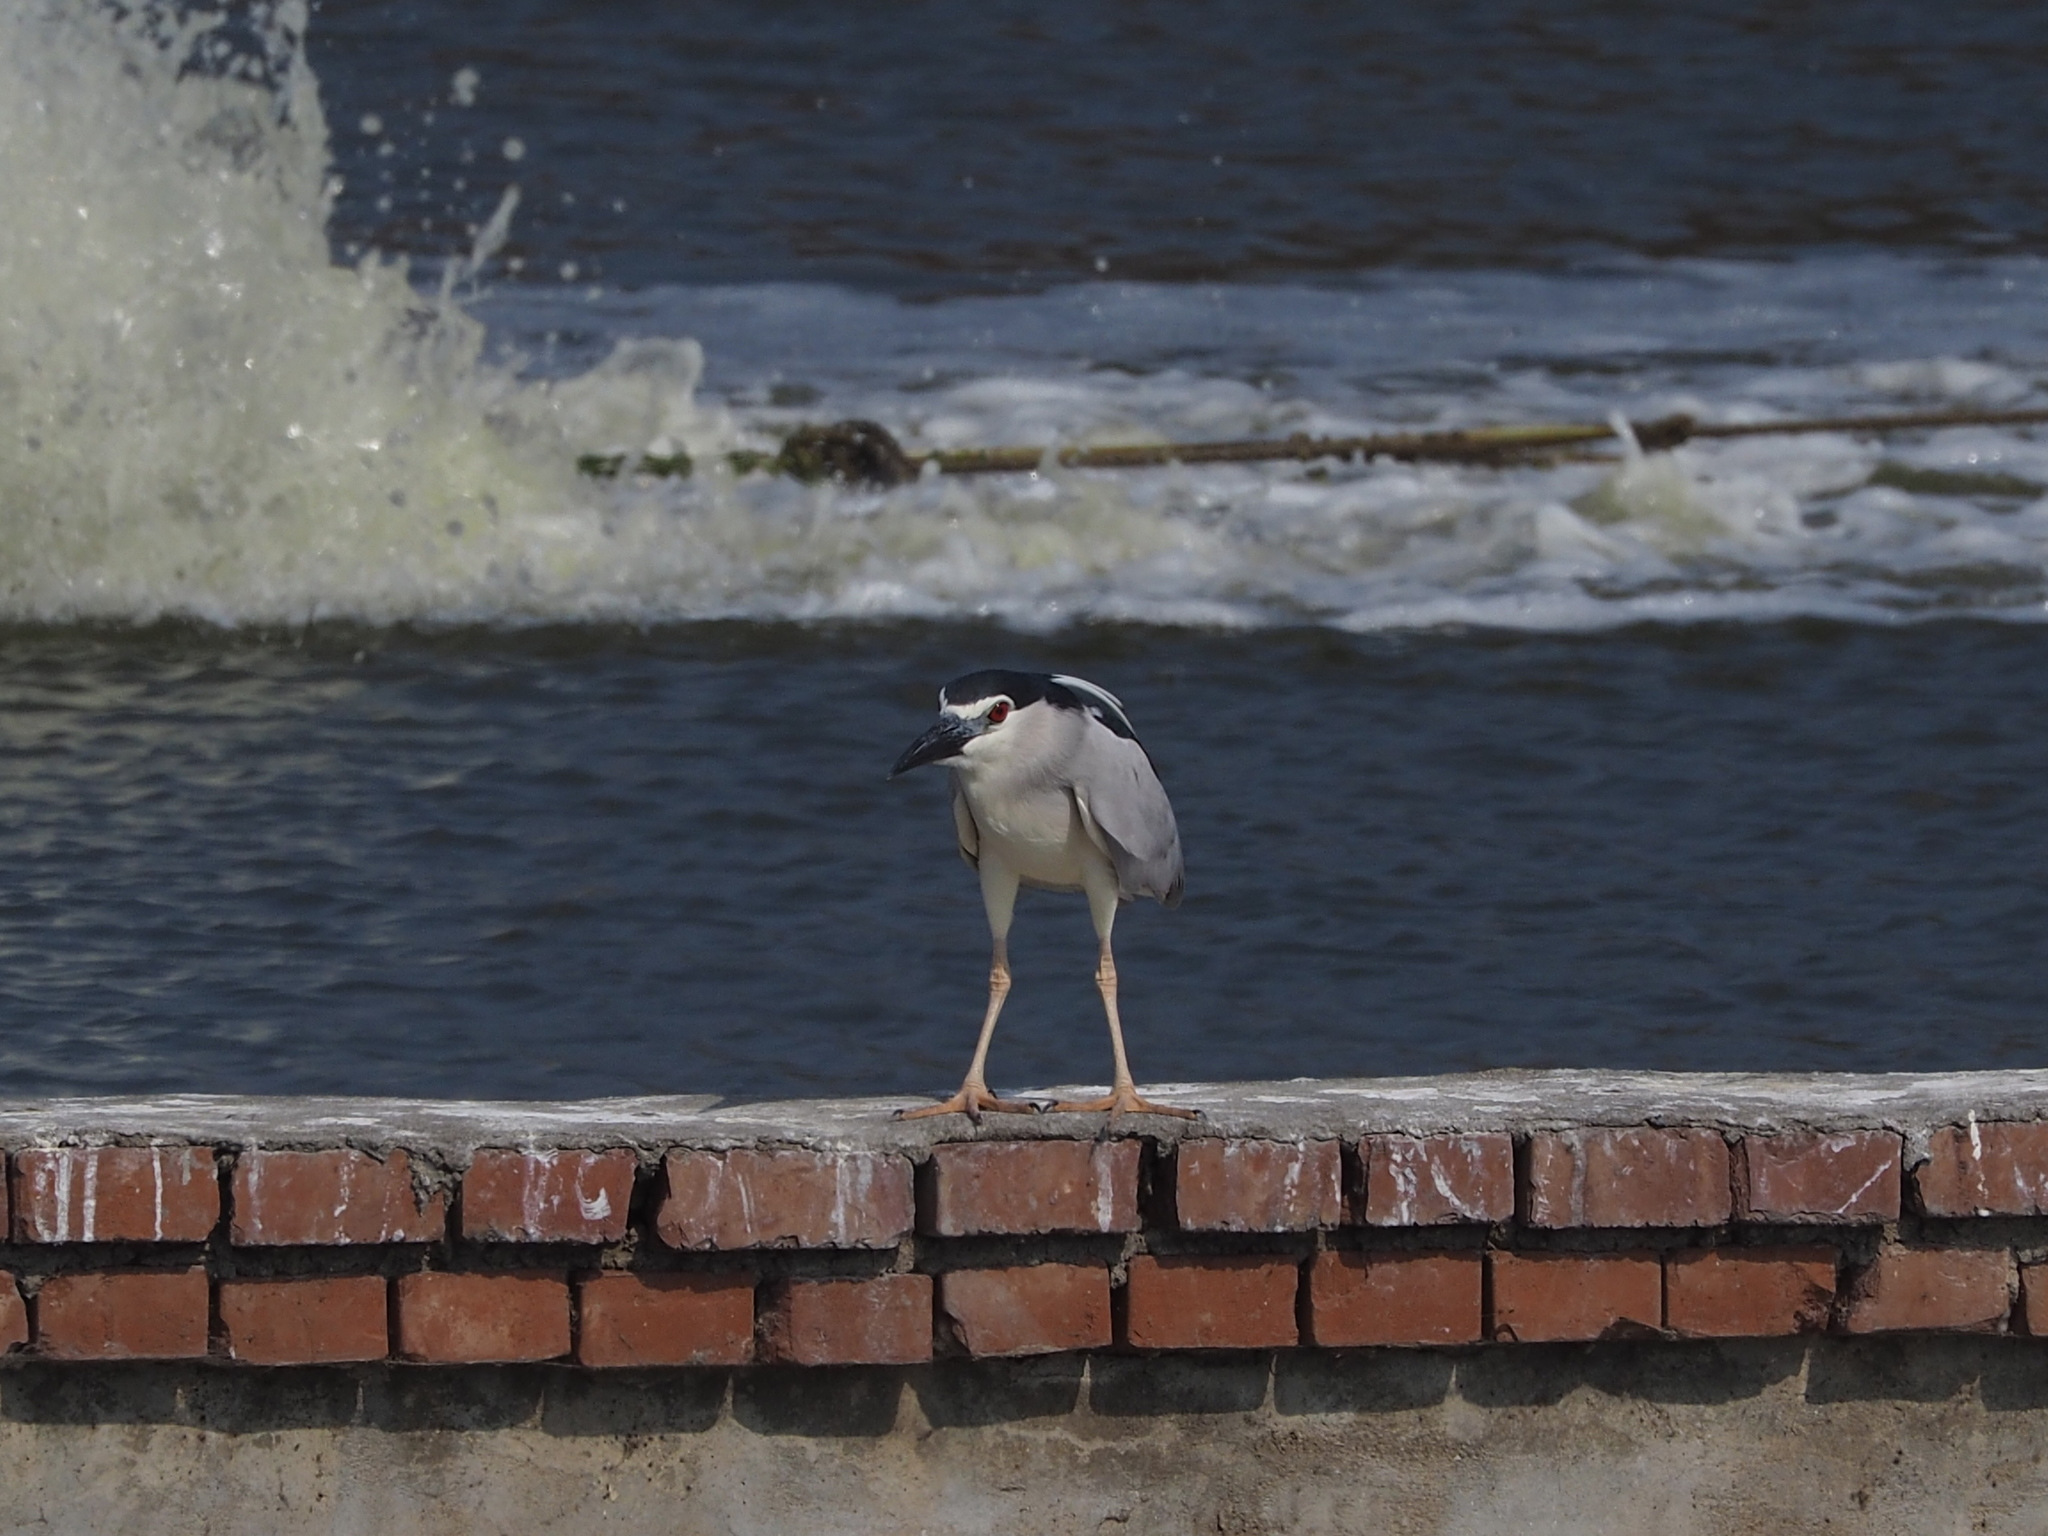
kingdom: Animalia
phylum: Chordata
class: Aves
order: Pelecaniformes
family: Ardeidae
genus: Nycticorax
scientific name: Nycticorax nycticorax
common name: Black-crowned night heron
